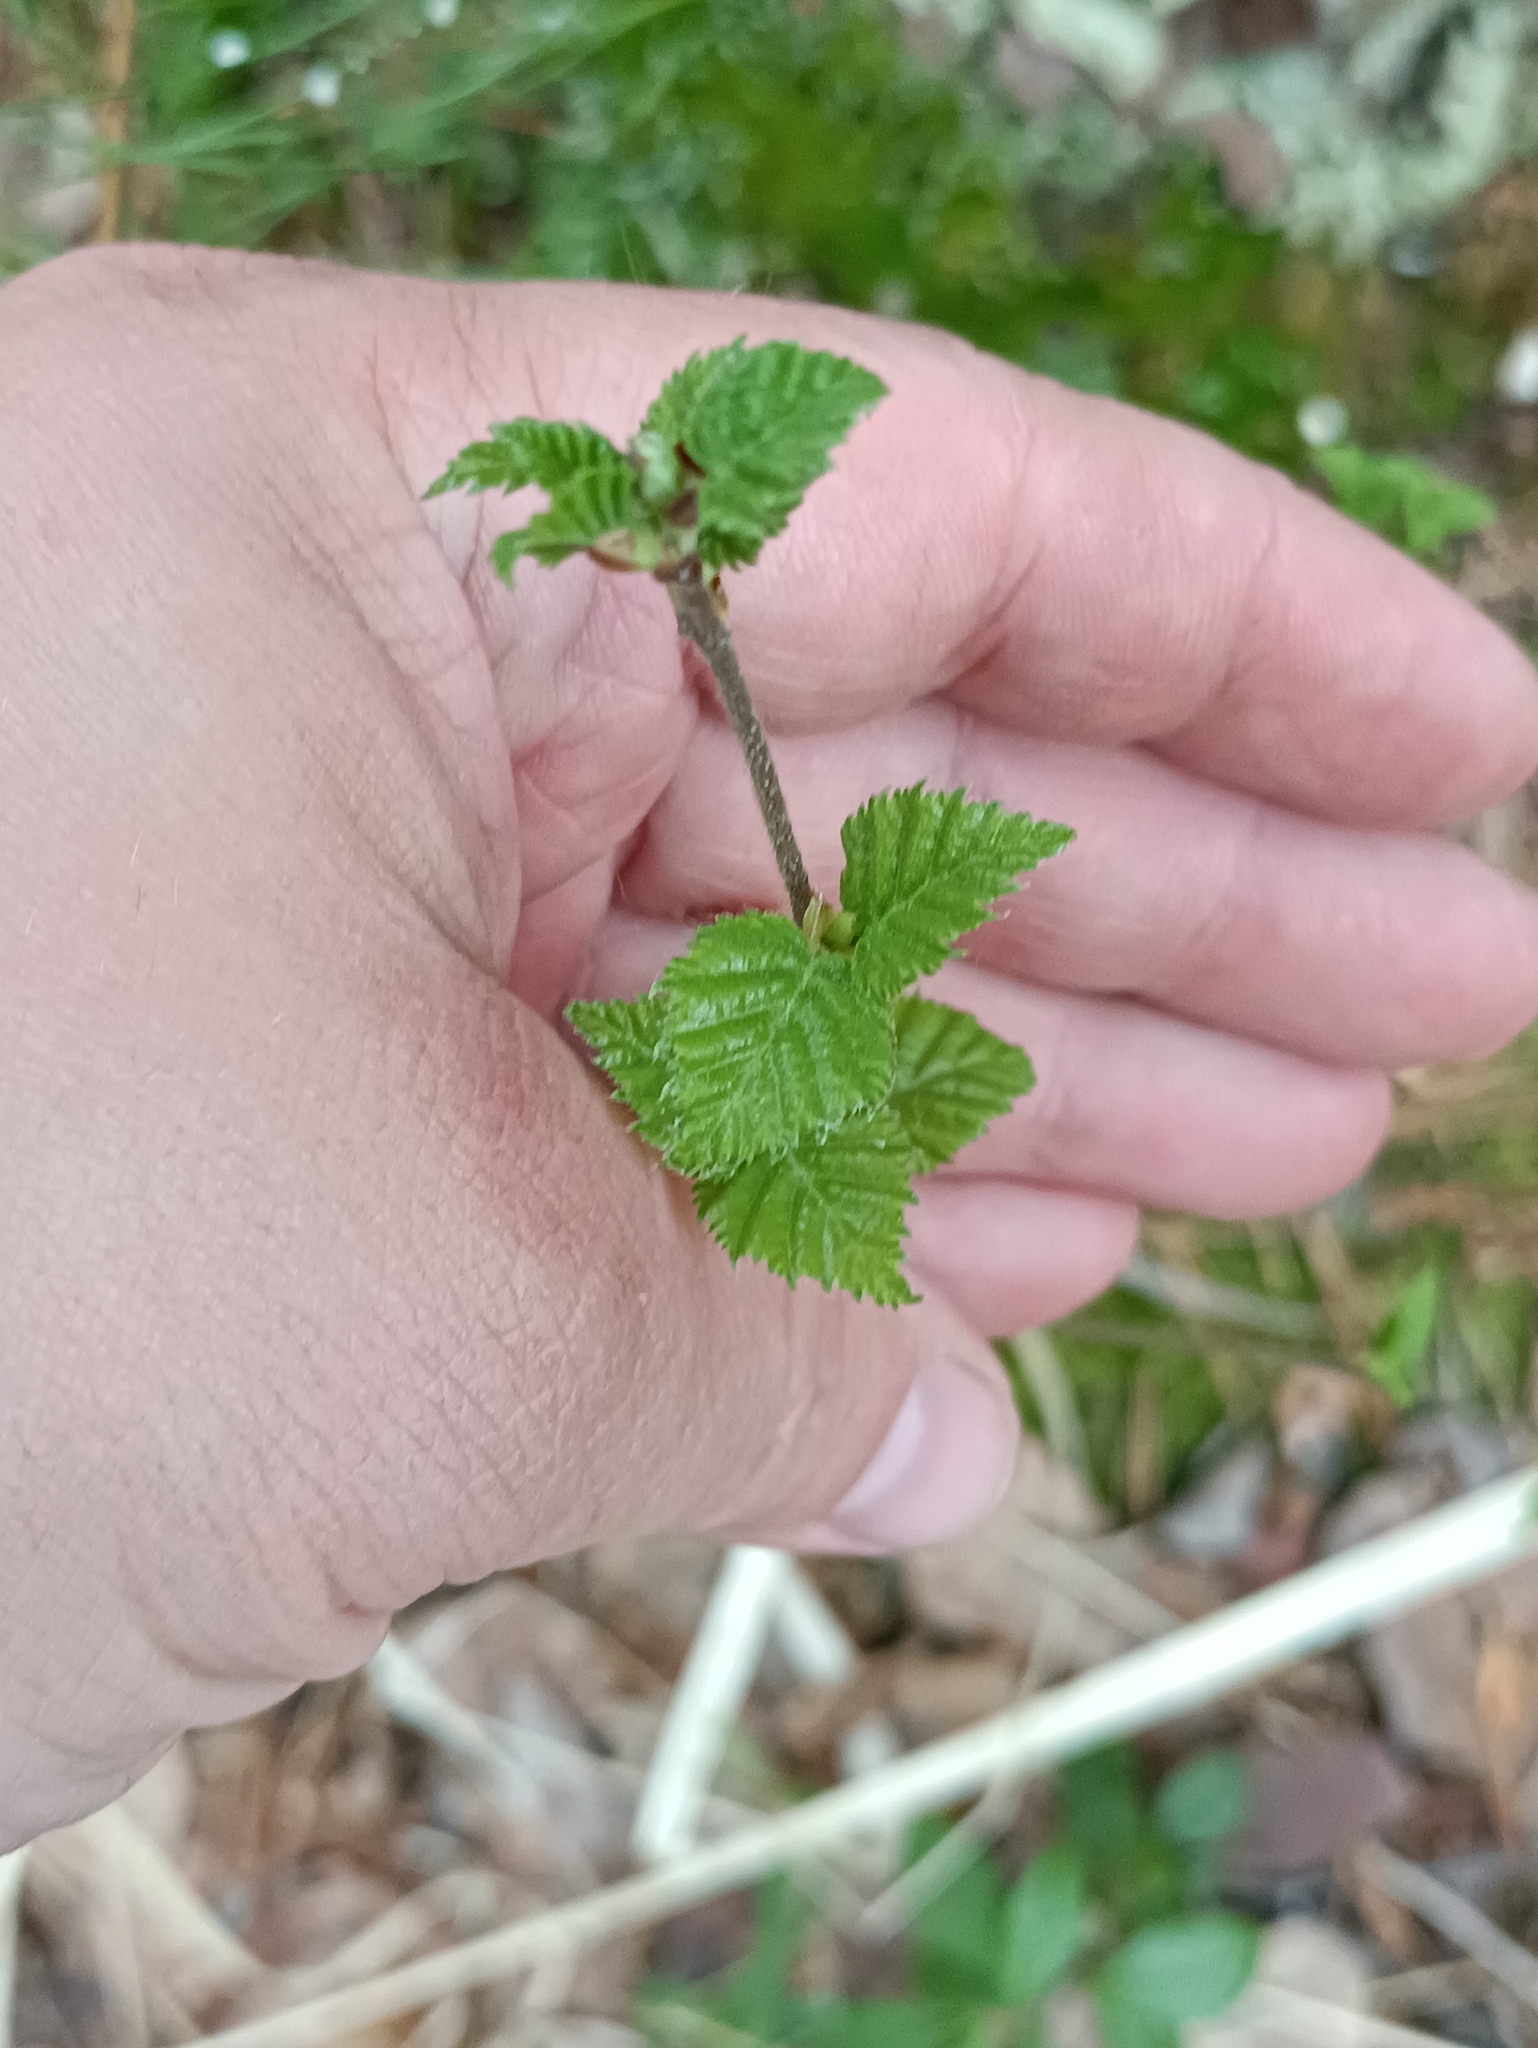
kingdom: Plantae
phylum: Tracheophyta
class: Magnoliopsida
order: Fagales
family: Betulaceae
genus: Betula
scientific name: Betula pubescens
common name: Downy birch
